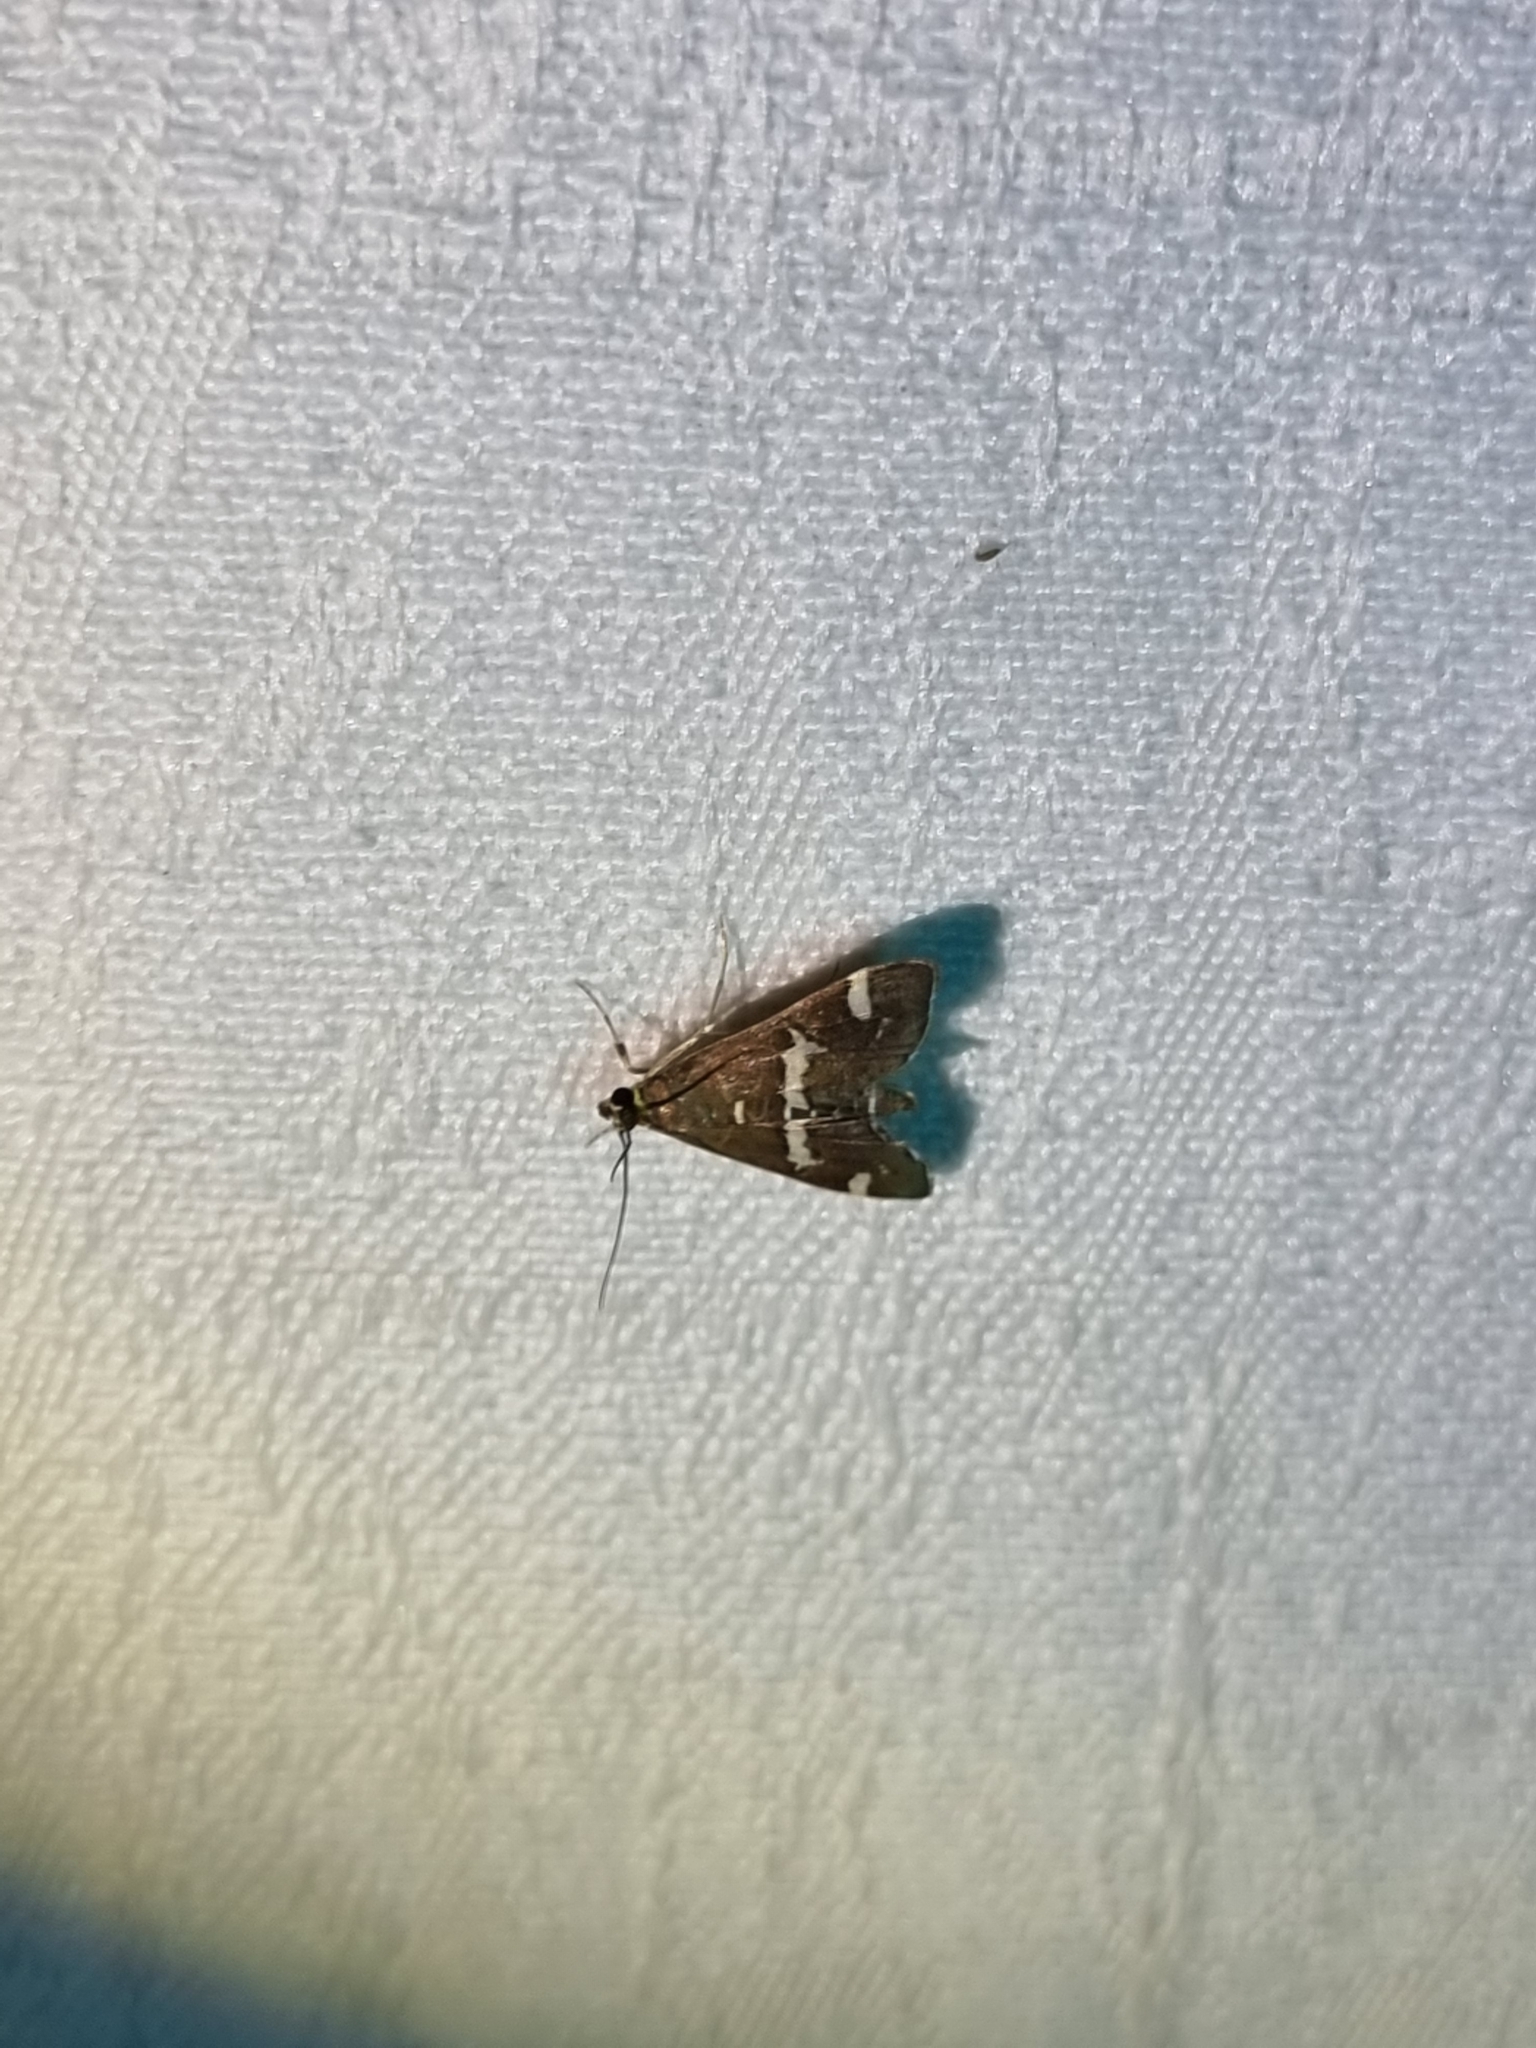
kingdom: Animalia
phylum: Arthropoda
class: Insecta
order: Lepidoptera
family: Crambidae
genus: Spoladea
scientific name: Spoladea recurvalis
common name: Beet webworm moth
